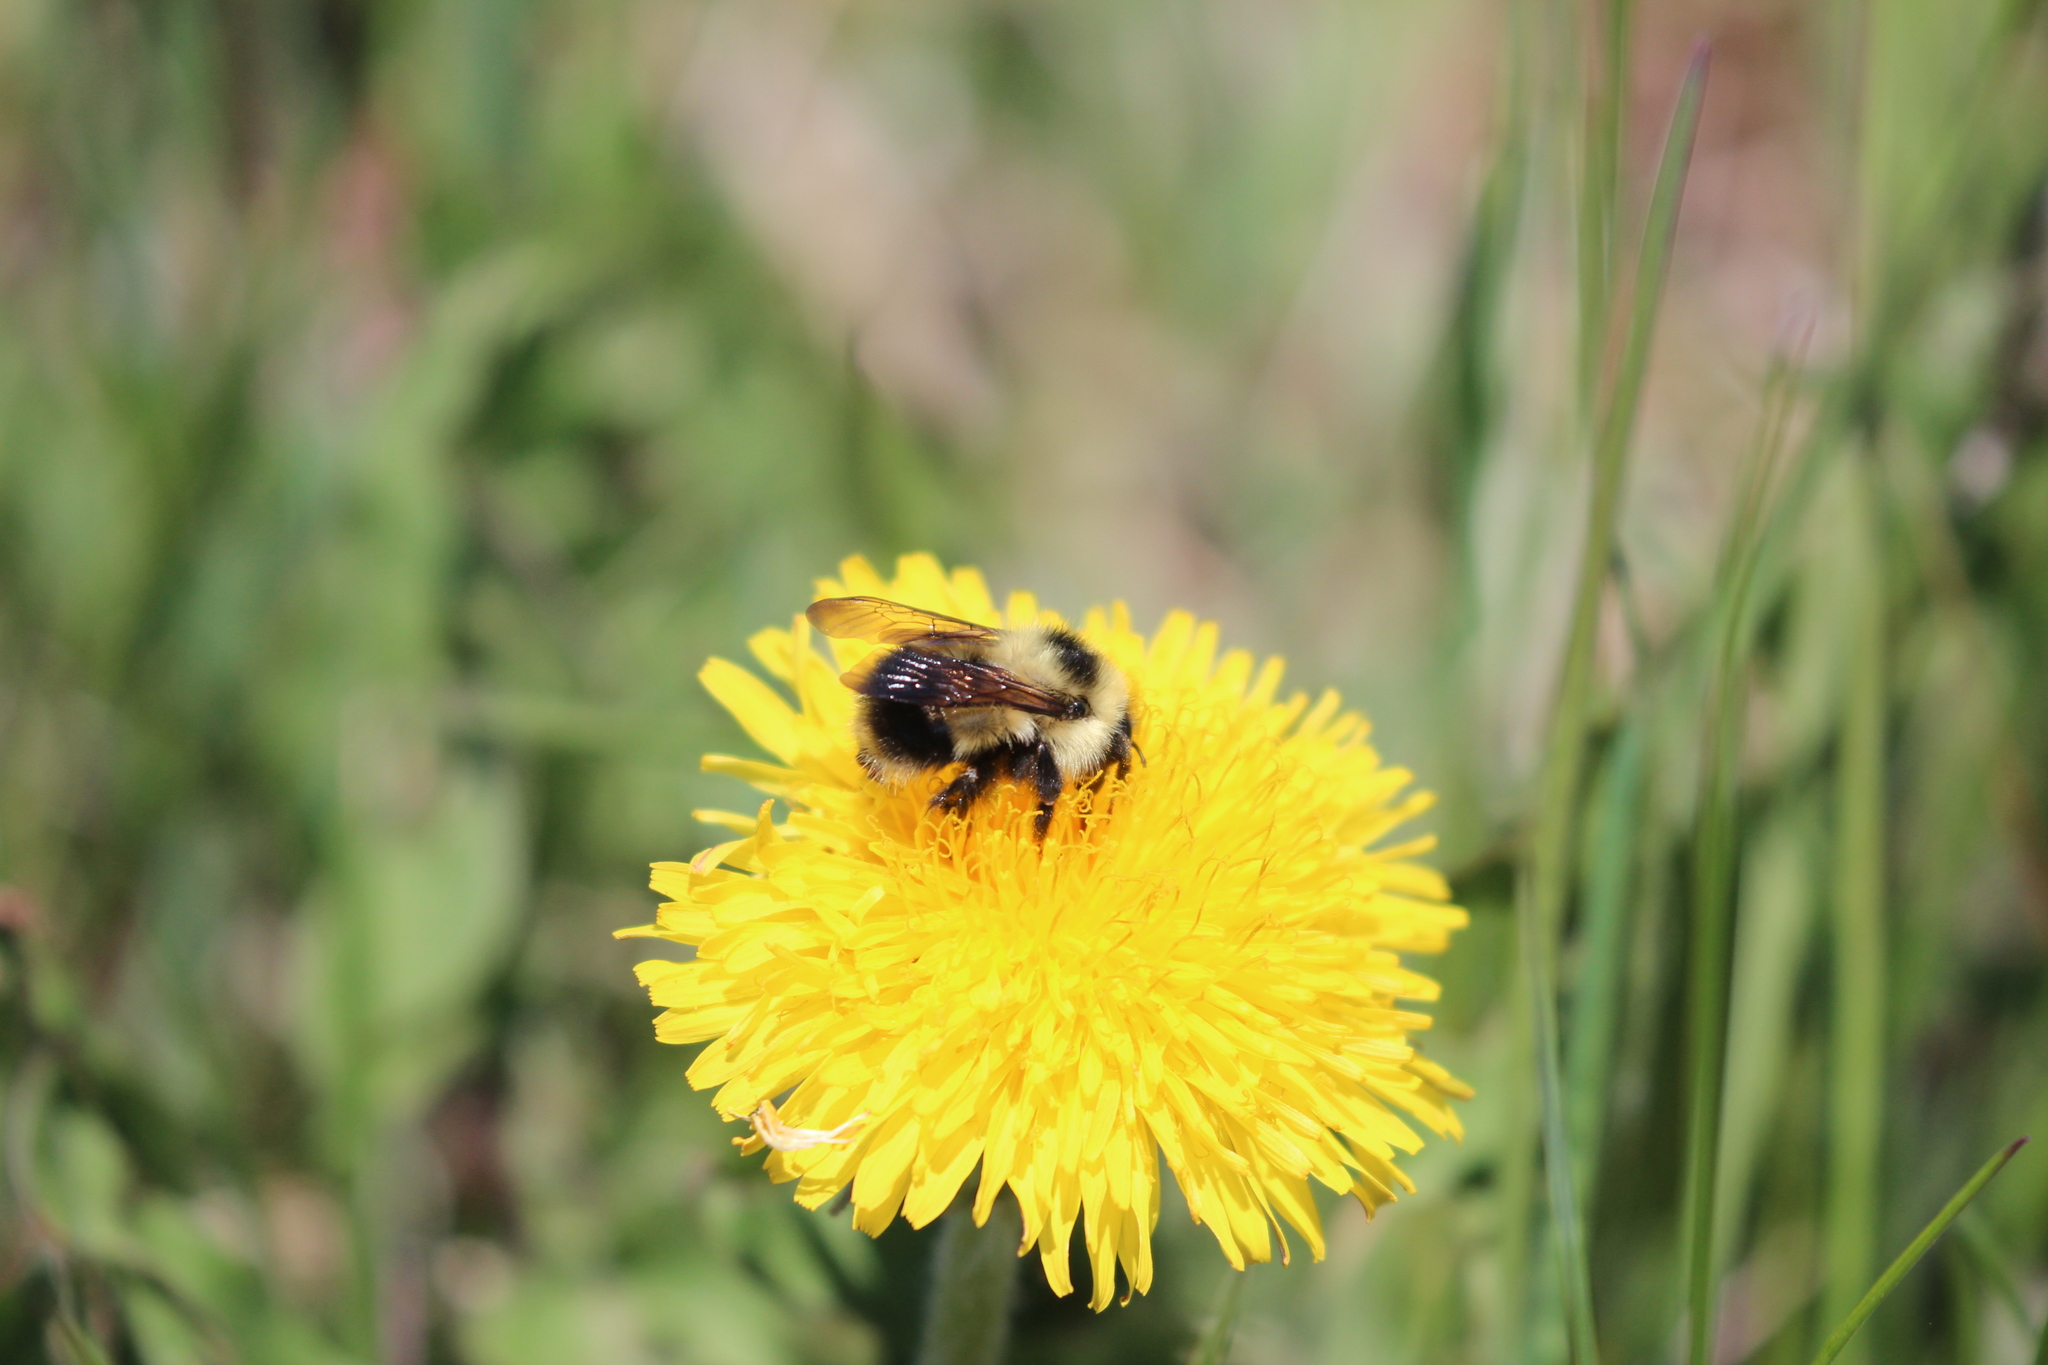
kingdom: Animalia
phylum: Arthropoda
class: Insecta
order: Hymenoptera
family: Apidae
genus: Bombus
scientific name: Bombus sandersoni
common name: Sanderson bumble bee
